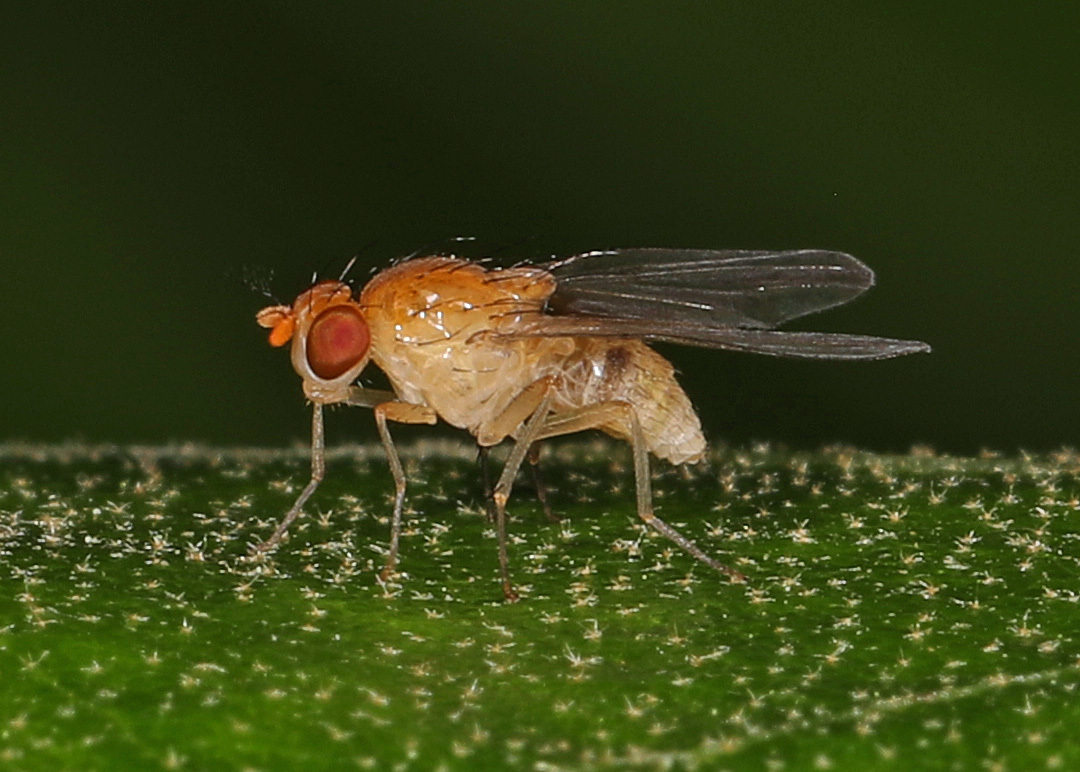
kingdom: Animalia
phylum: Arthropoda
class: Insecta
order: Diptera
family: Lauxaniidae
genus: Neogriphoneura
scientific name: Neogriphoneura sordida
